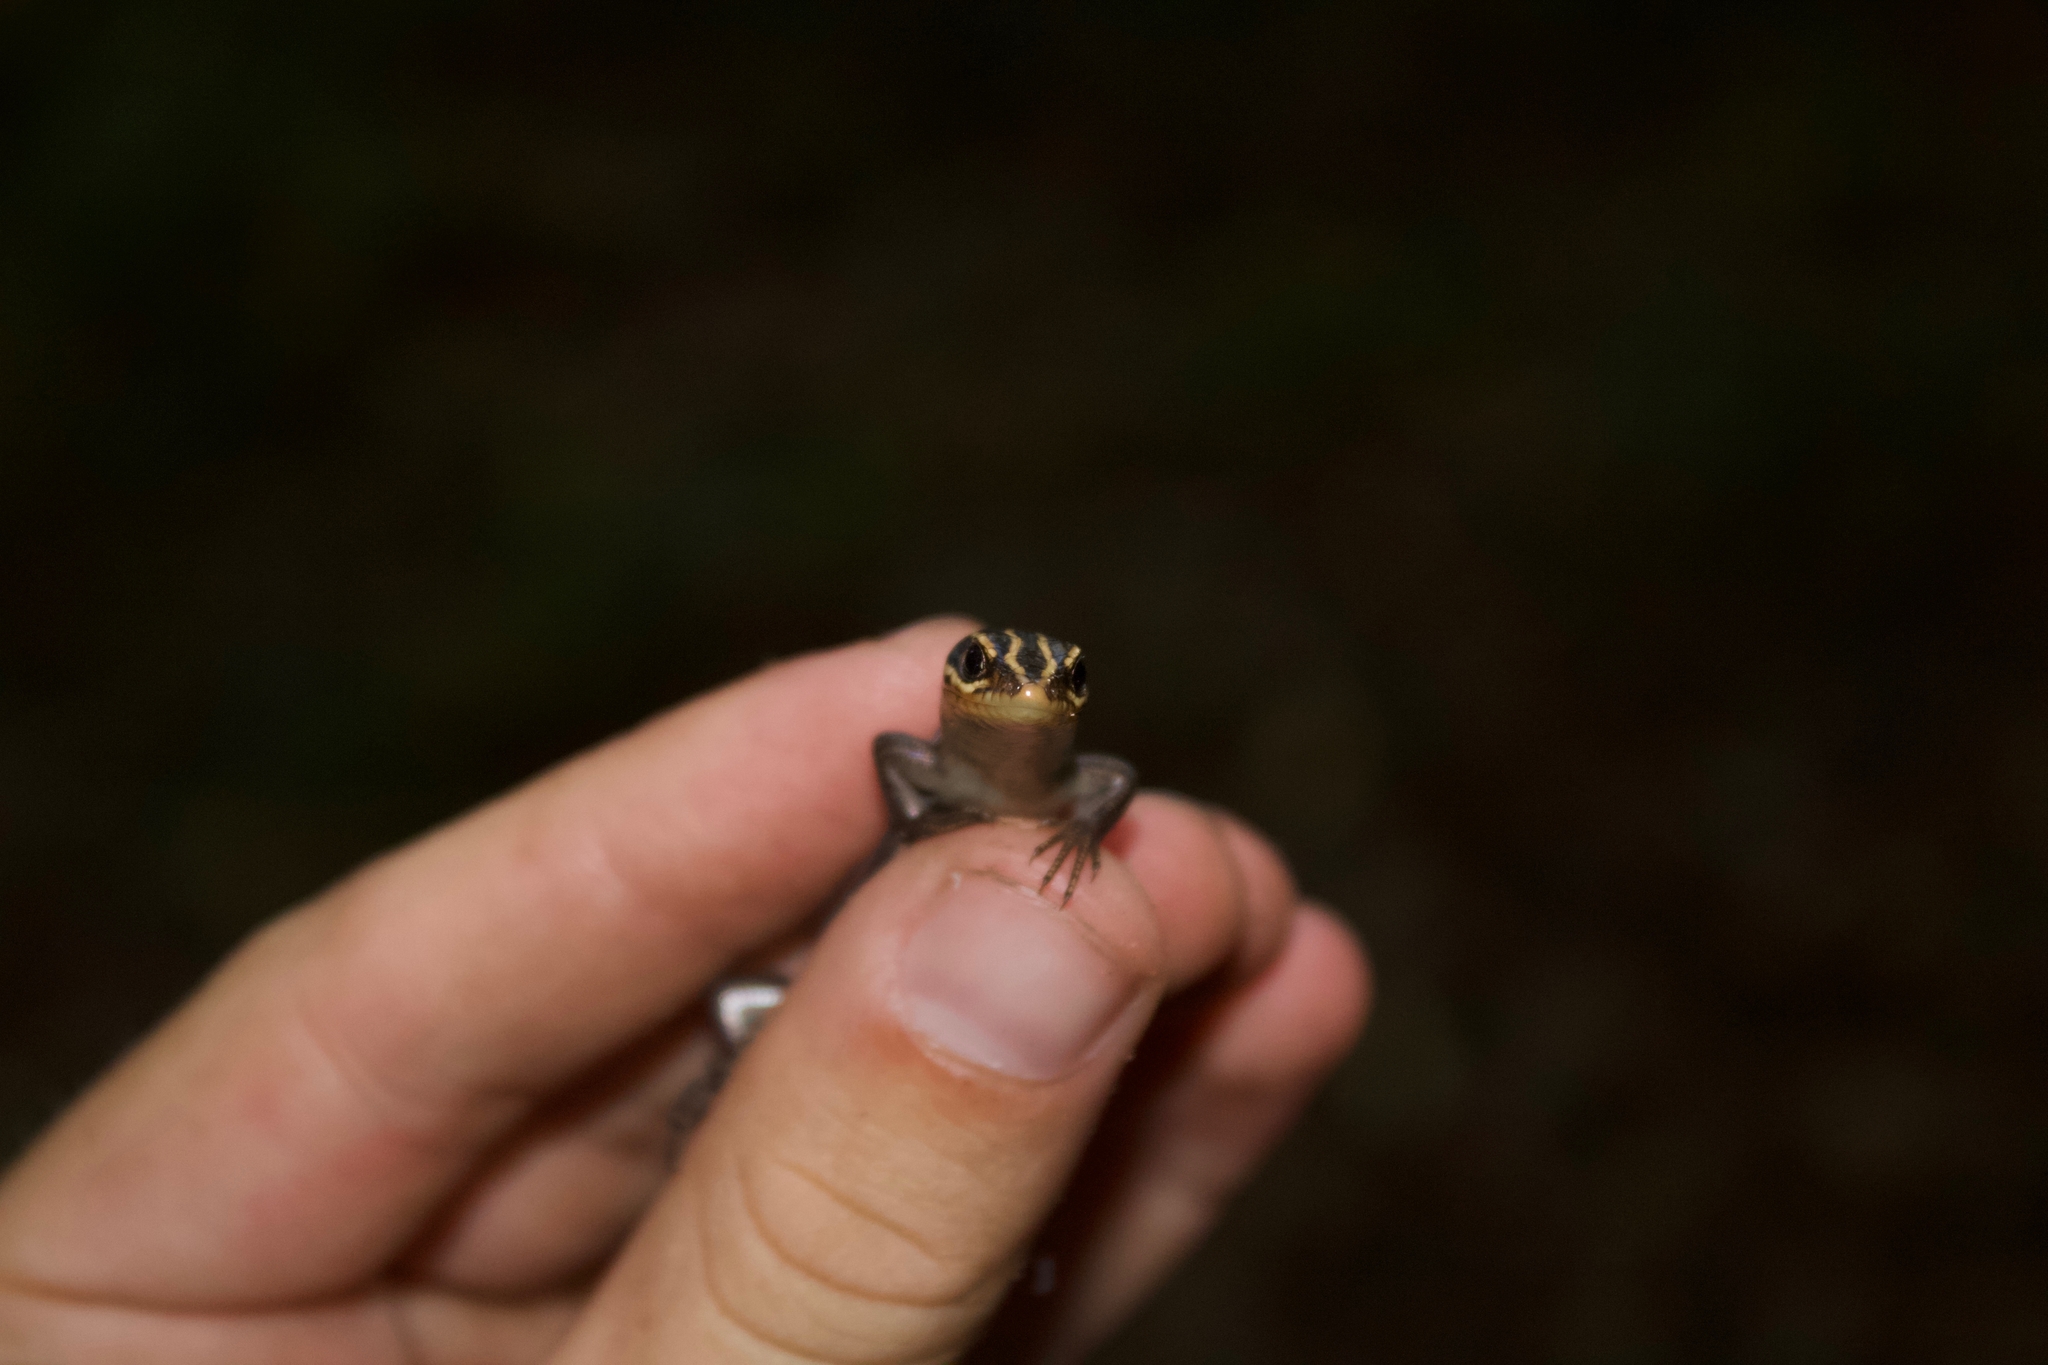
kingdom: Animalia
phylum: Chordata
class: Squamata
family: Scincidae
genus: Plestiodon
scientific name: Plestiodon fasciatus
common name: Five-lined skink
